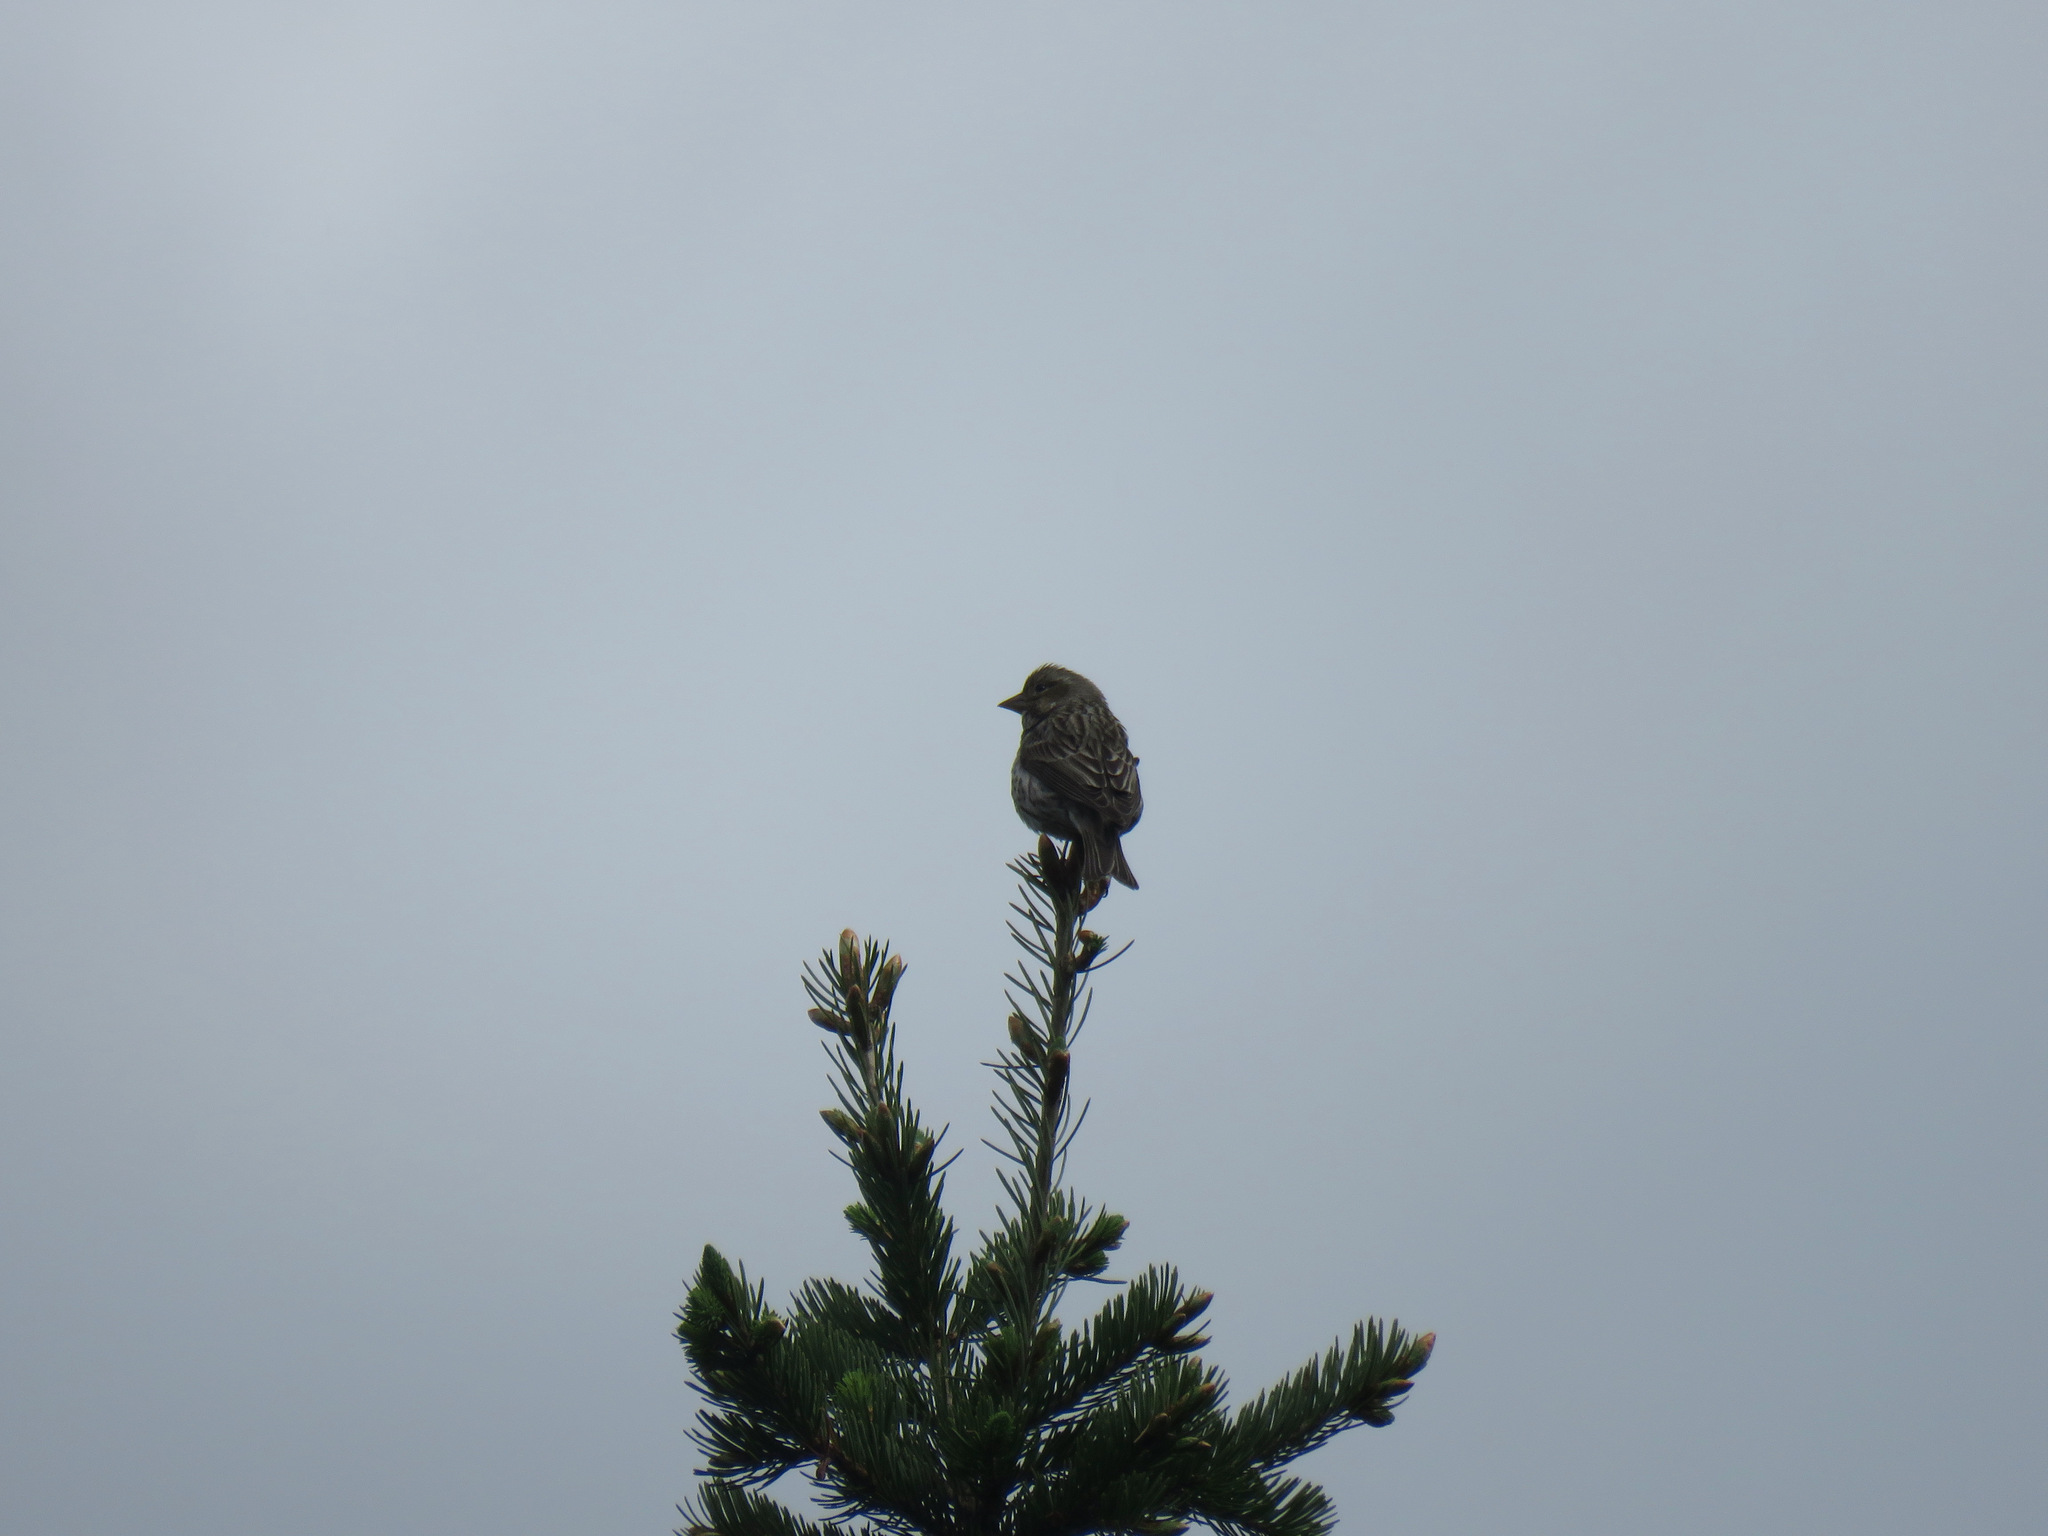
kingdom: Animalia
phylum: Chordata
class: Aves
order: Passeriformes
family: Fringillidae
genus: Haemorhous
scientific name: Haemorhous cassinii
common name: Cassin's finch
